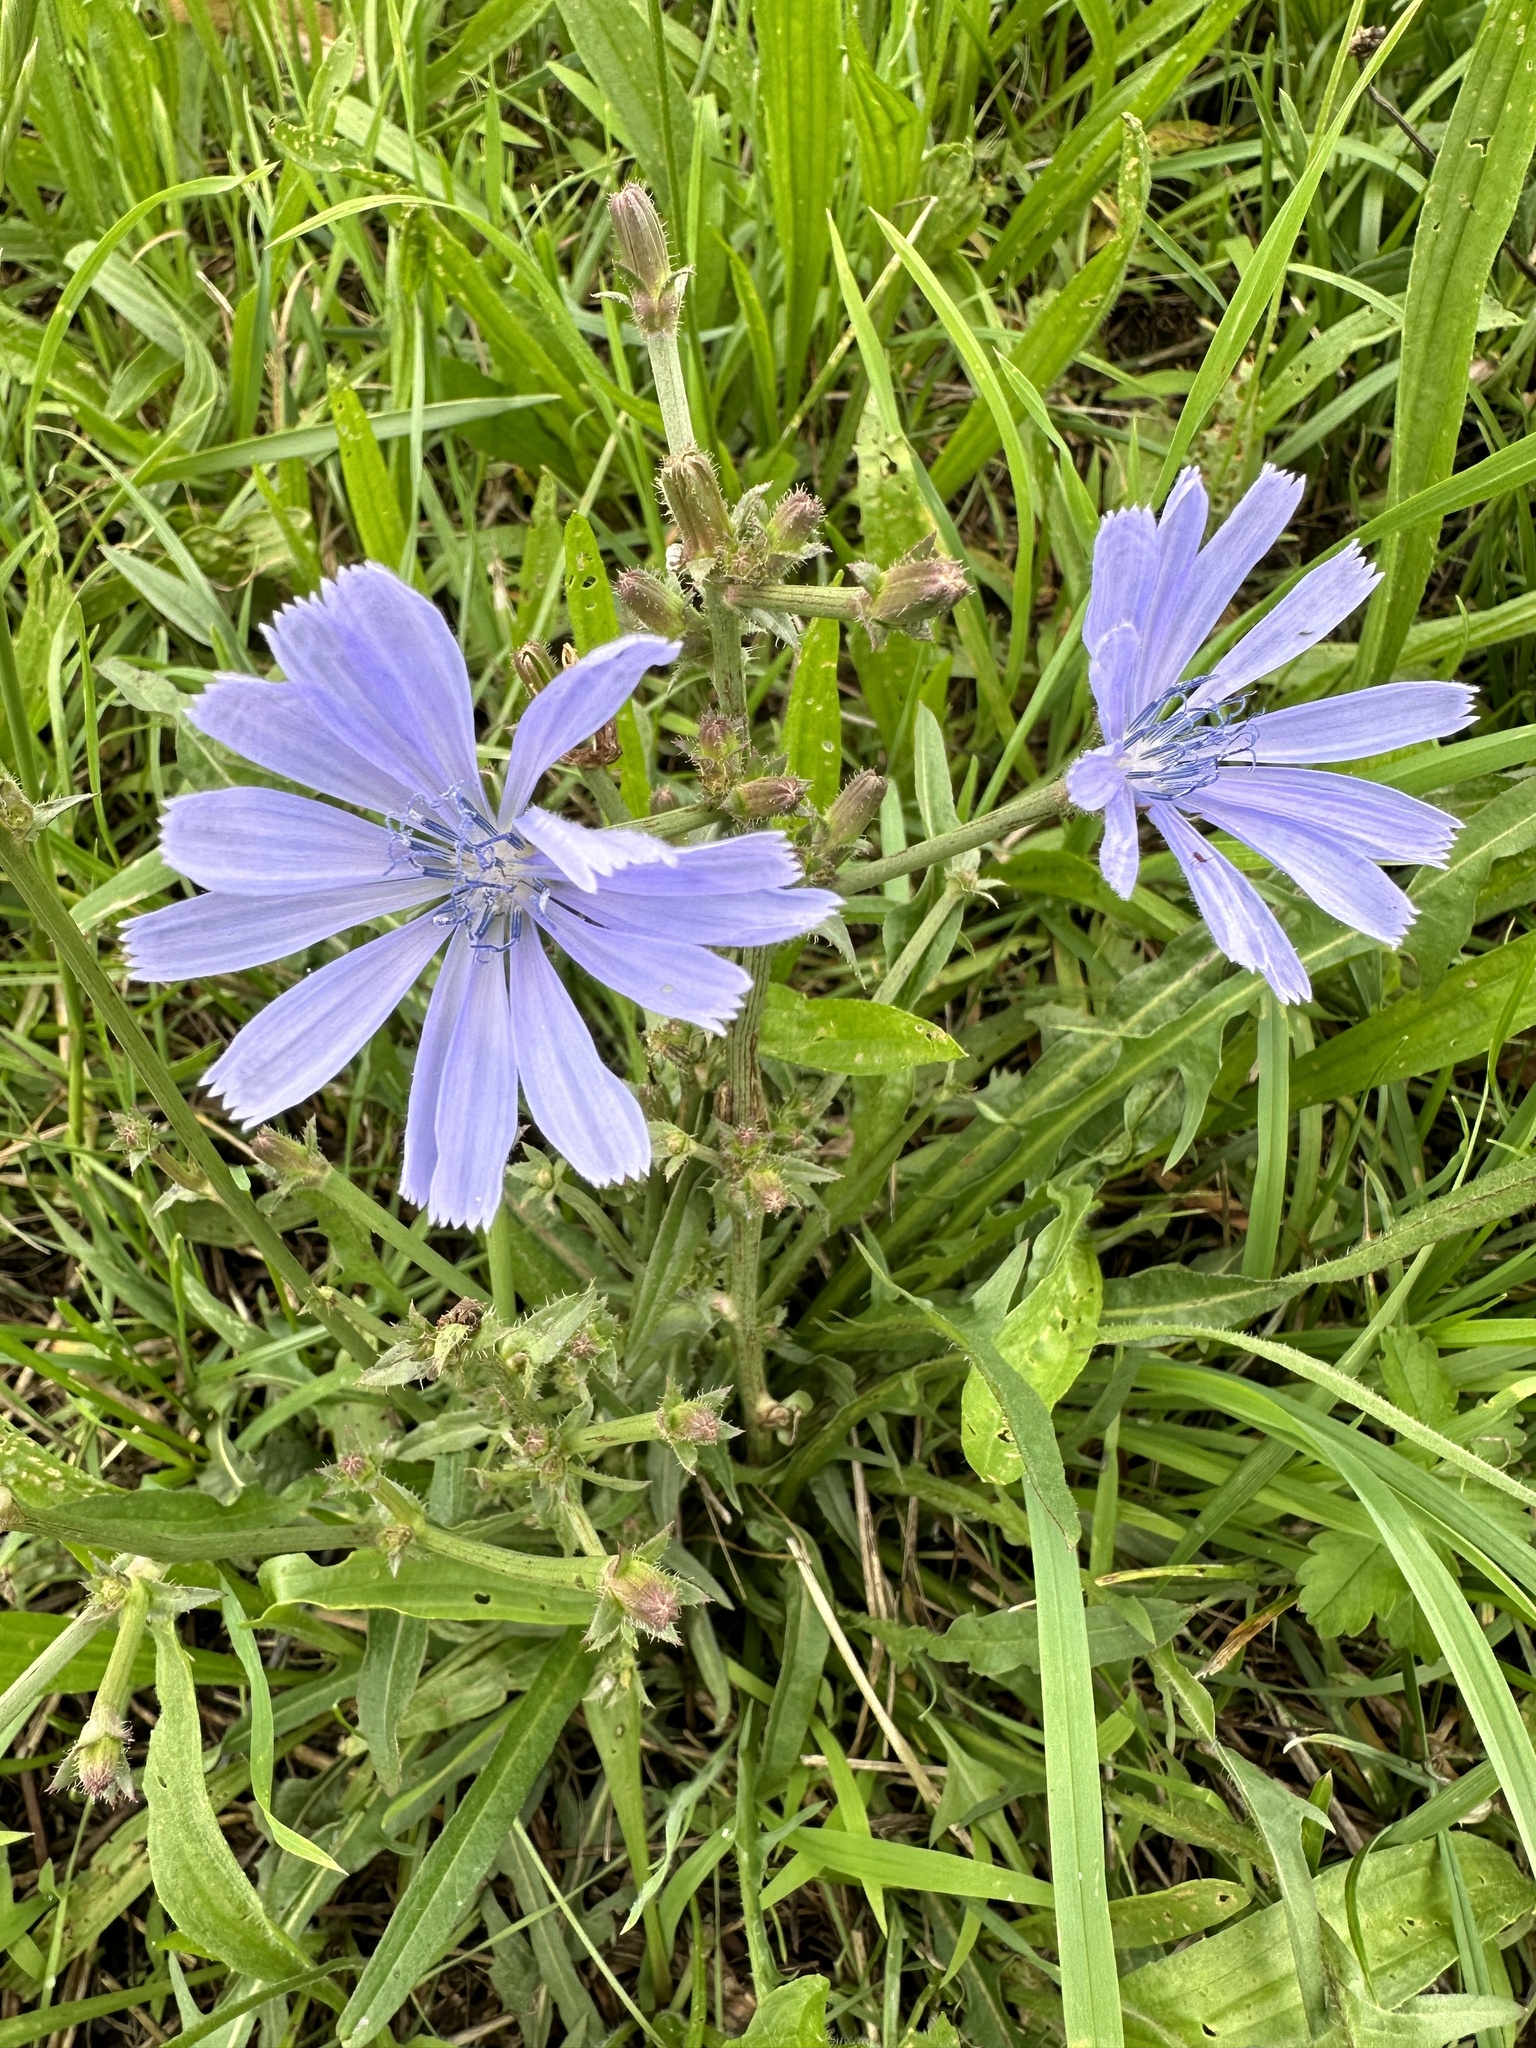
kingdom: Plantae
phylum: Tracheophyta
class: Magnoliopsida
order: Asterales
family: Asteraceae
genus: Cichorium
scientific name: Cichorium intybus
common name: Chicory
